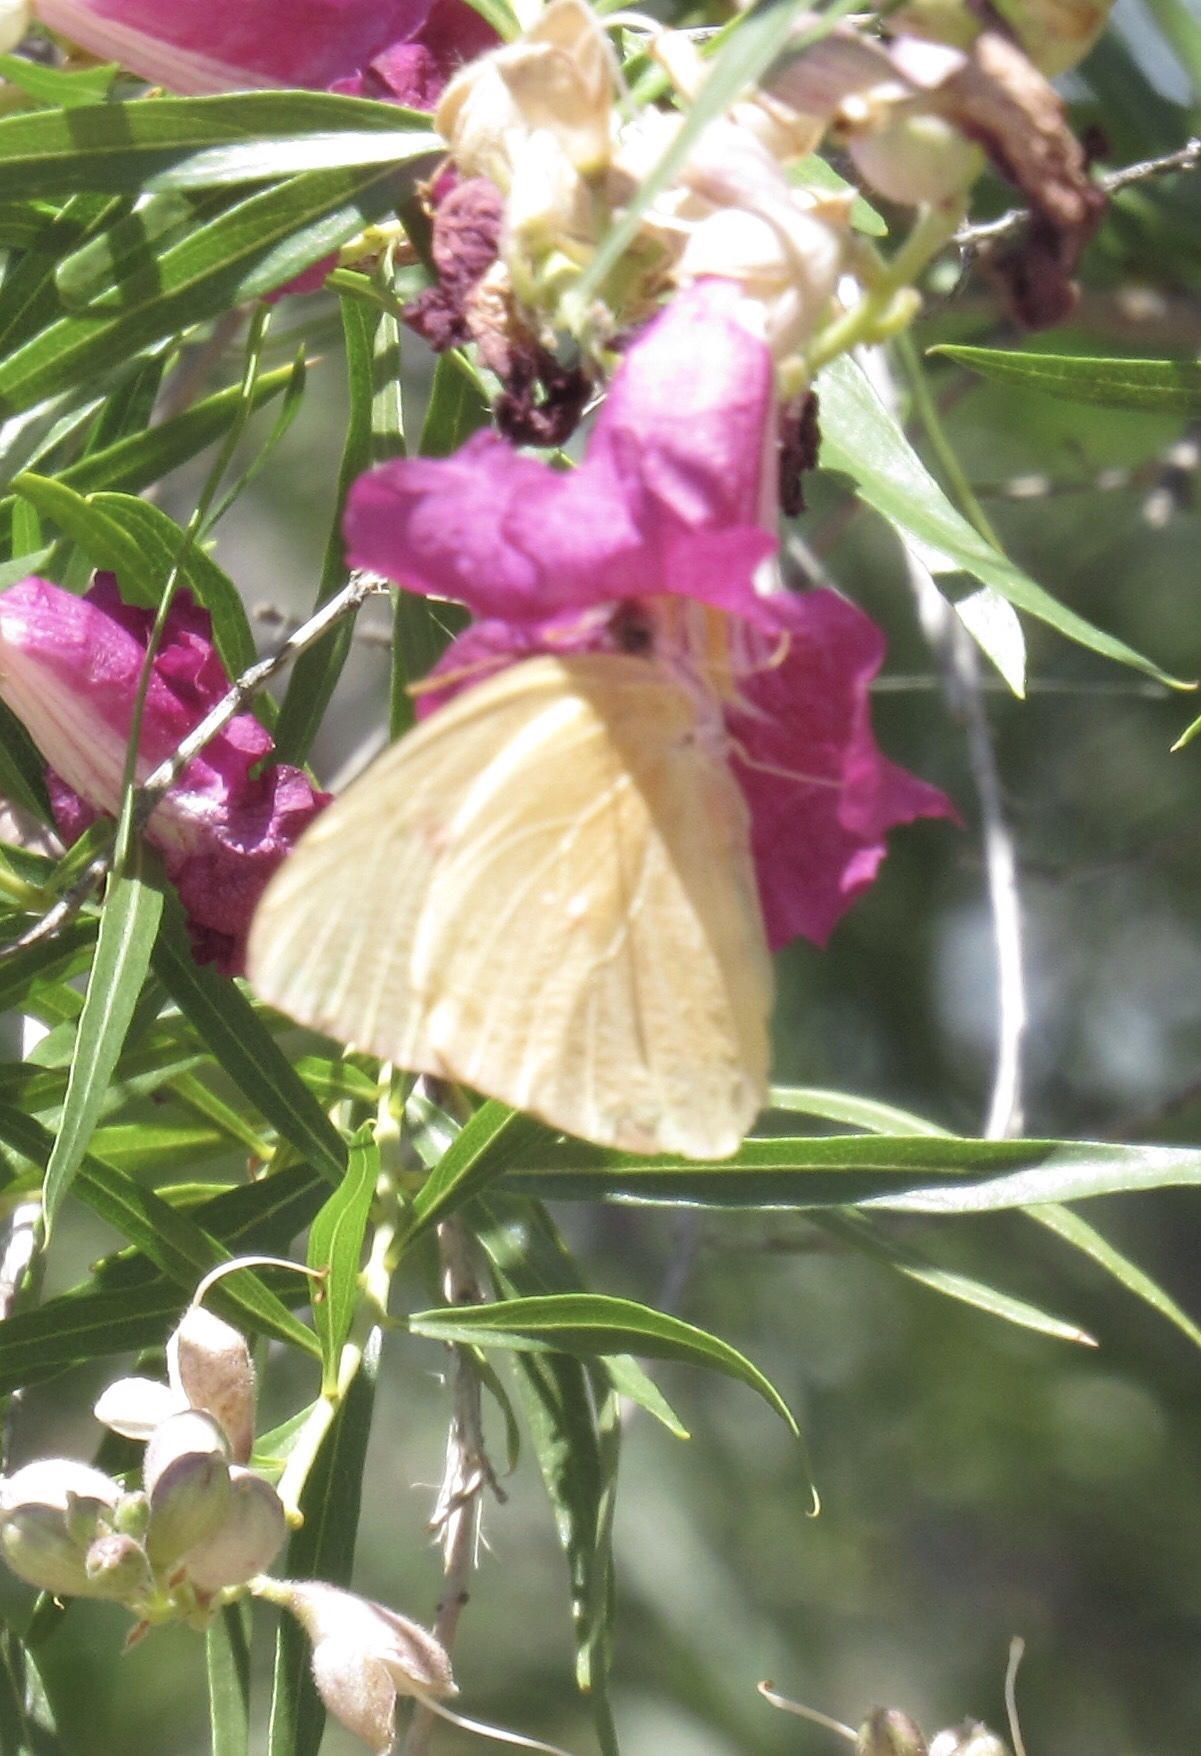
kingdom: Animalia
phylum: Arthropoda
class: Insecta
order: Lepidoptera
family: Pieridae
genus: Phoebis
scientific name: Phoebis sennae
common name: Cloudless sulphur
